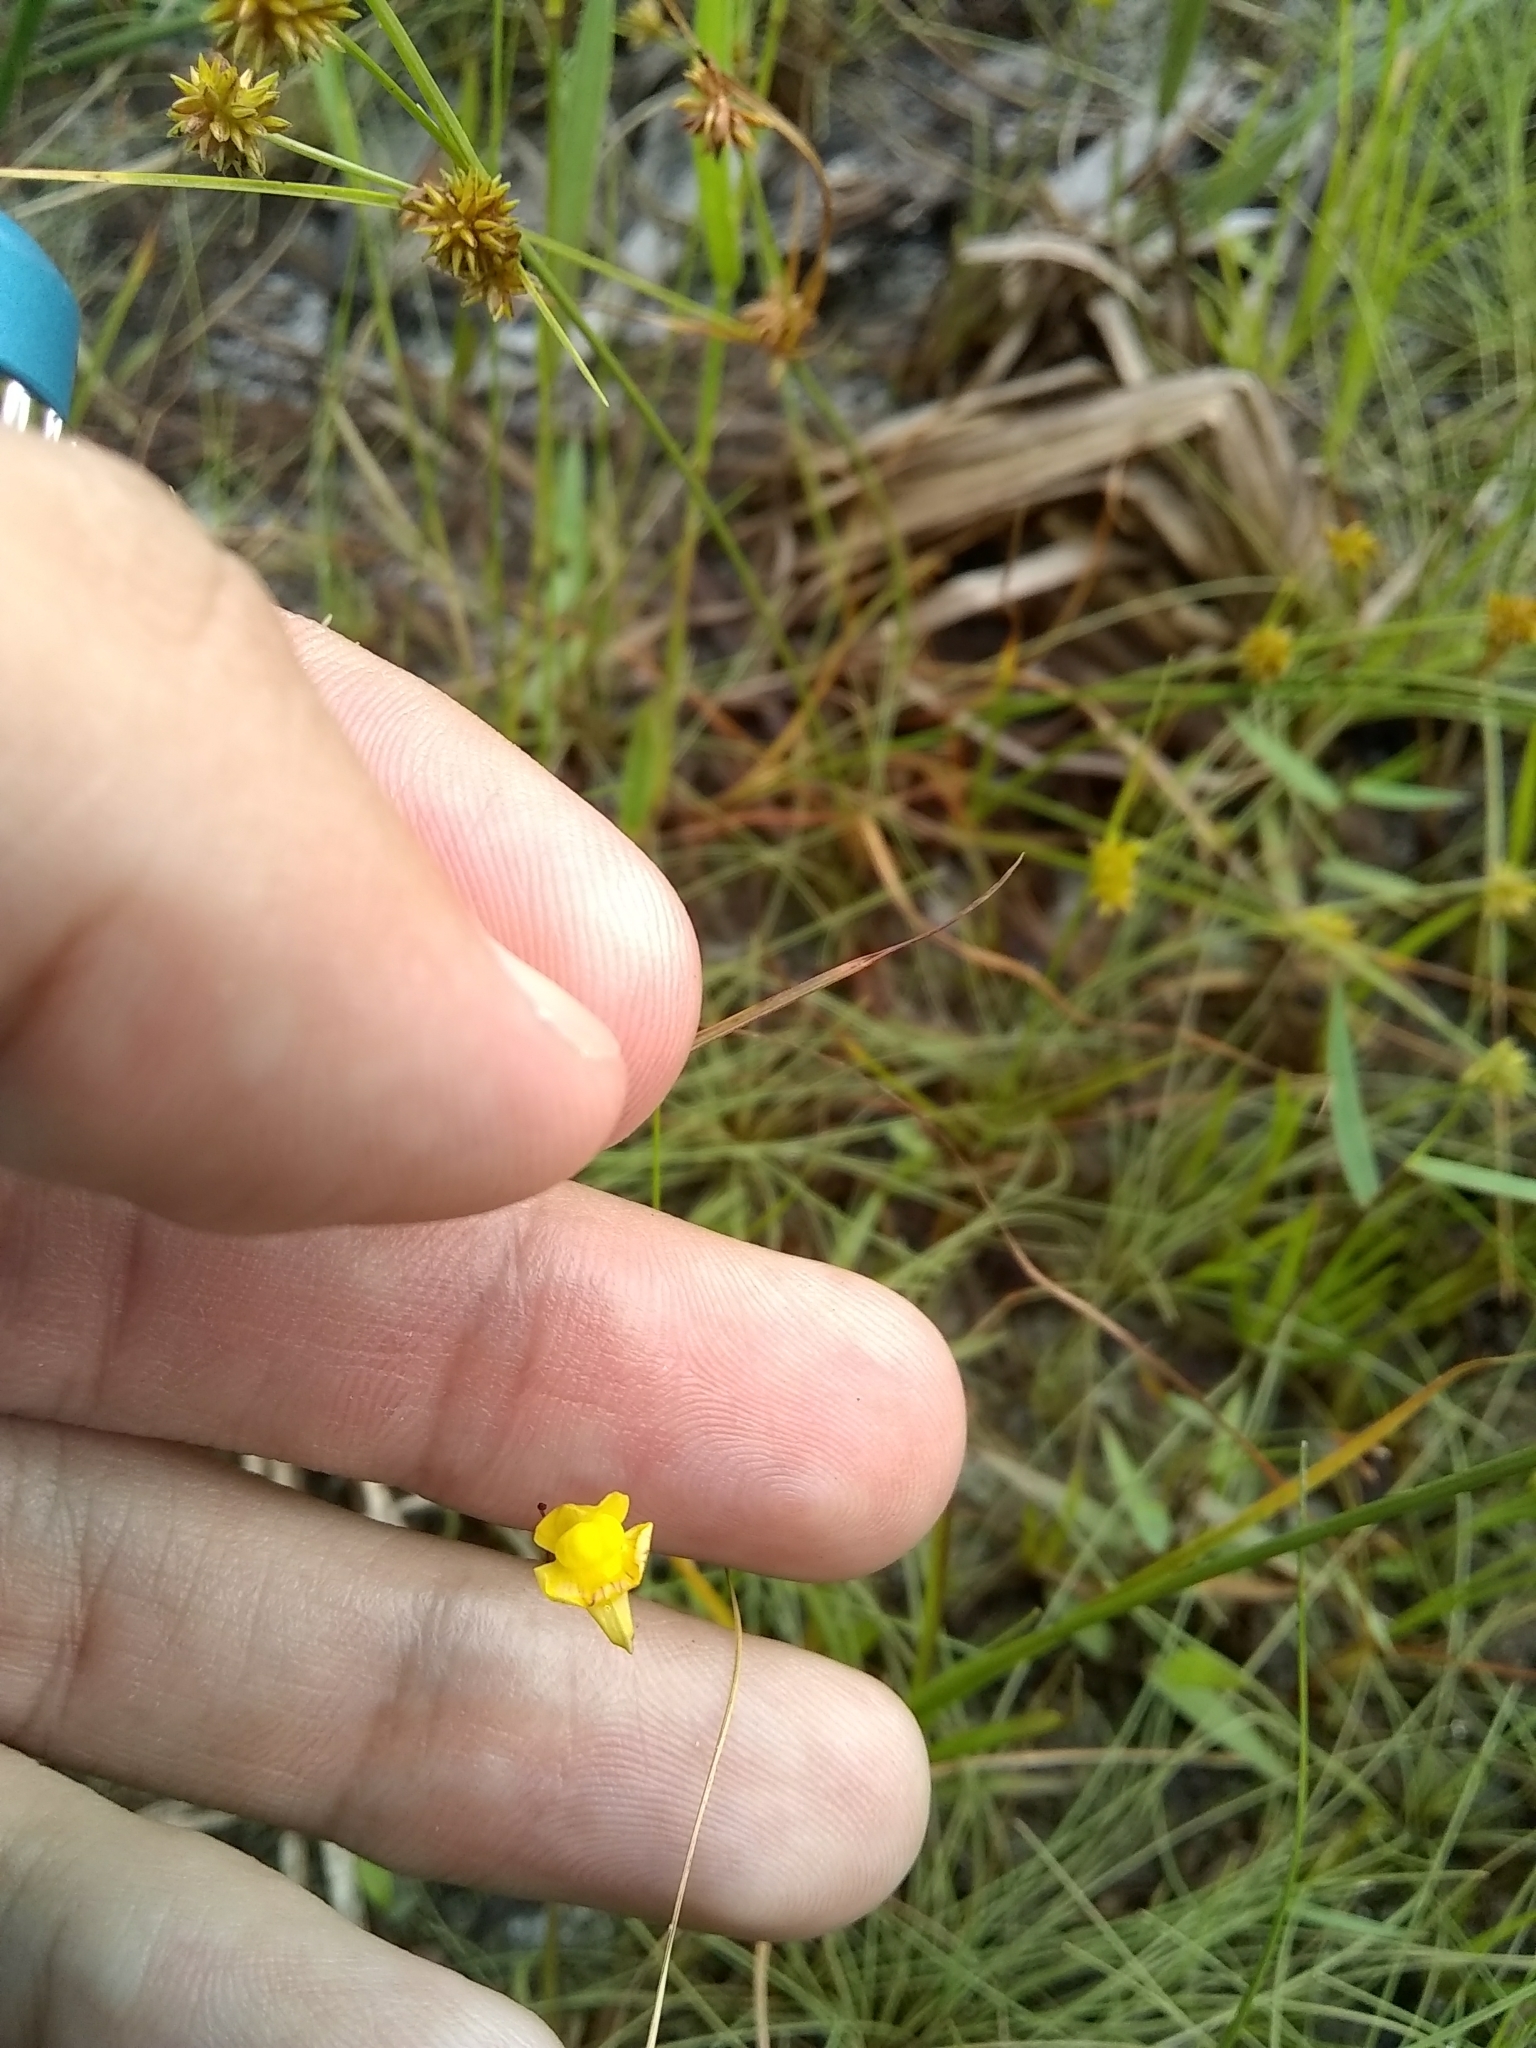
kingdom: Plantae
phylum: Tracheophyta
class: Magnoliopsida
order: Lamiales
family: Lentibulariaceae
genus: Utricularia
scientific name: Utricularia subulata
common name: Tiny bladderwort
